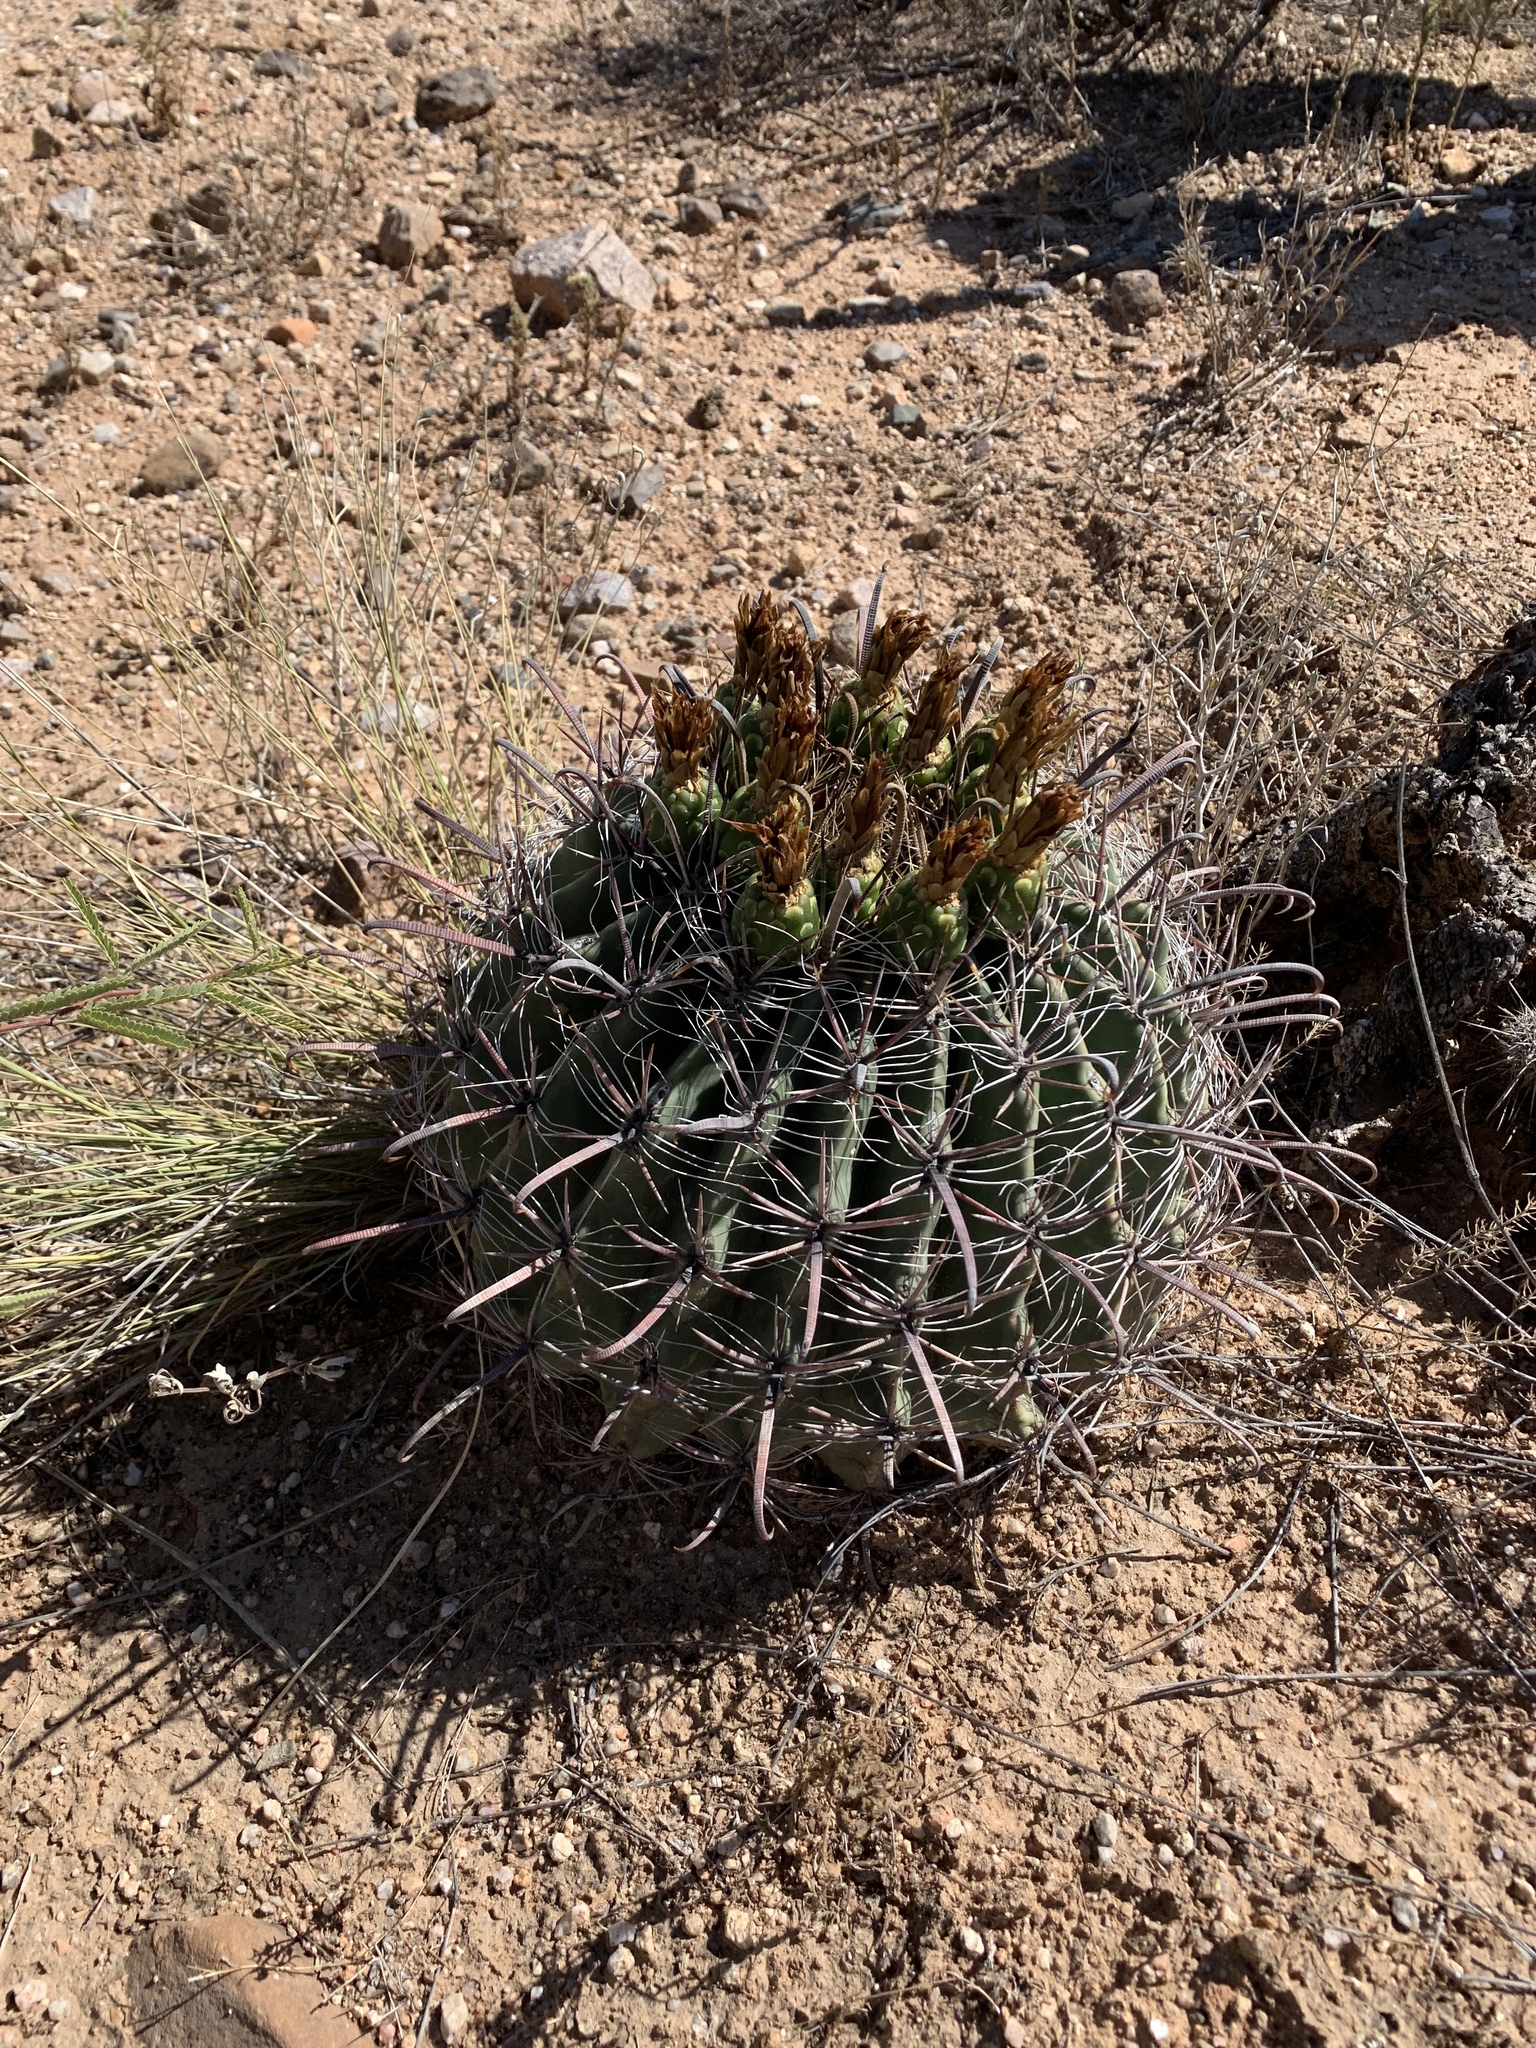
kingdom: Plantae
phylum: Tracheophyta
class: Magnoliopsida
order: Caryophyllales
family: Cactaceae
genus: Ferocactus
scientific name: Ferocactus wislizeni
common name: Candy barrel cactus
